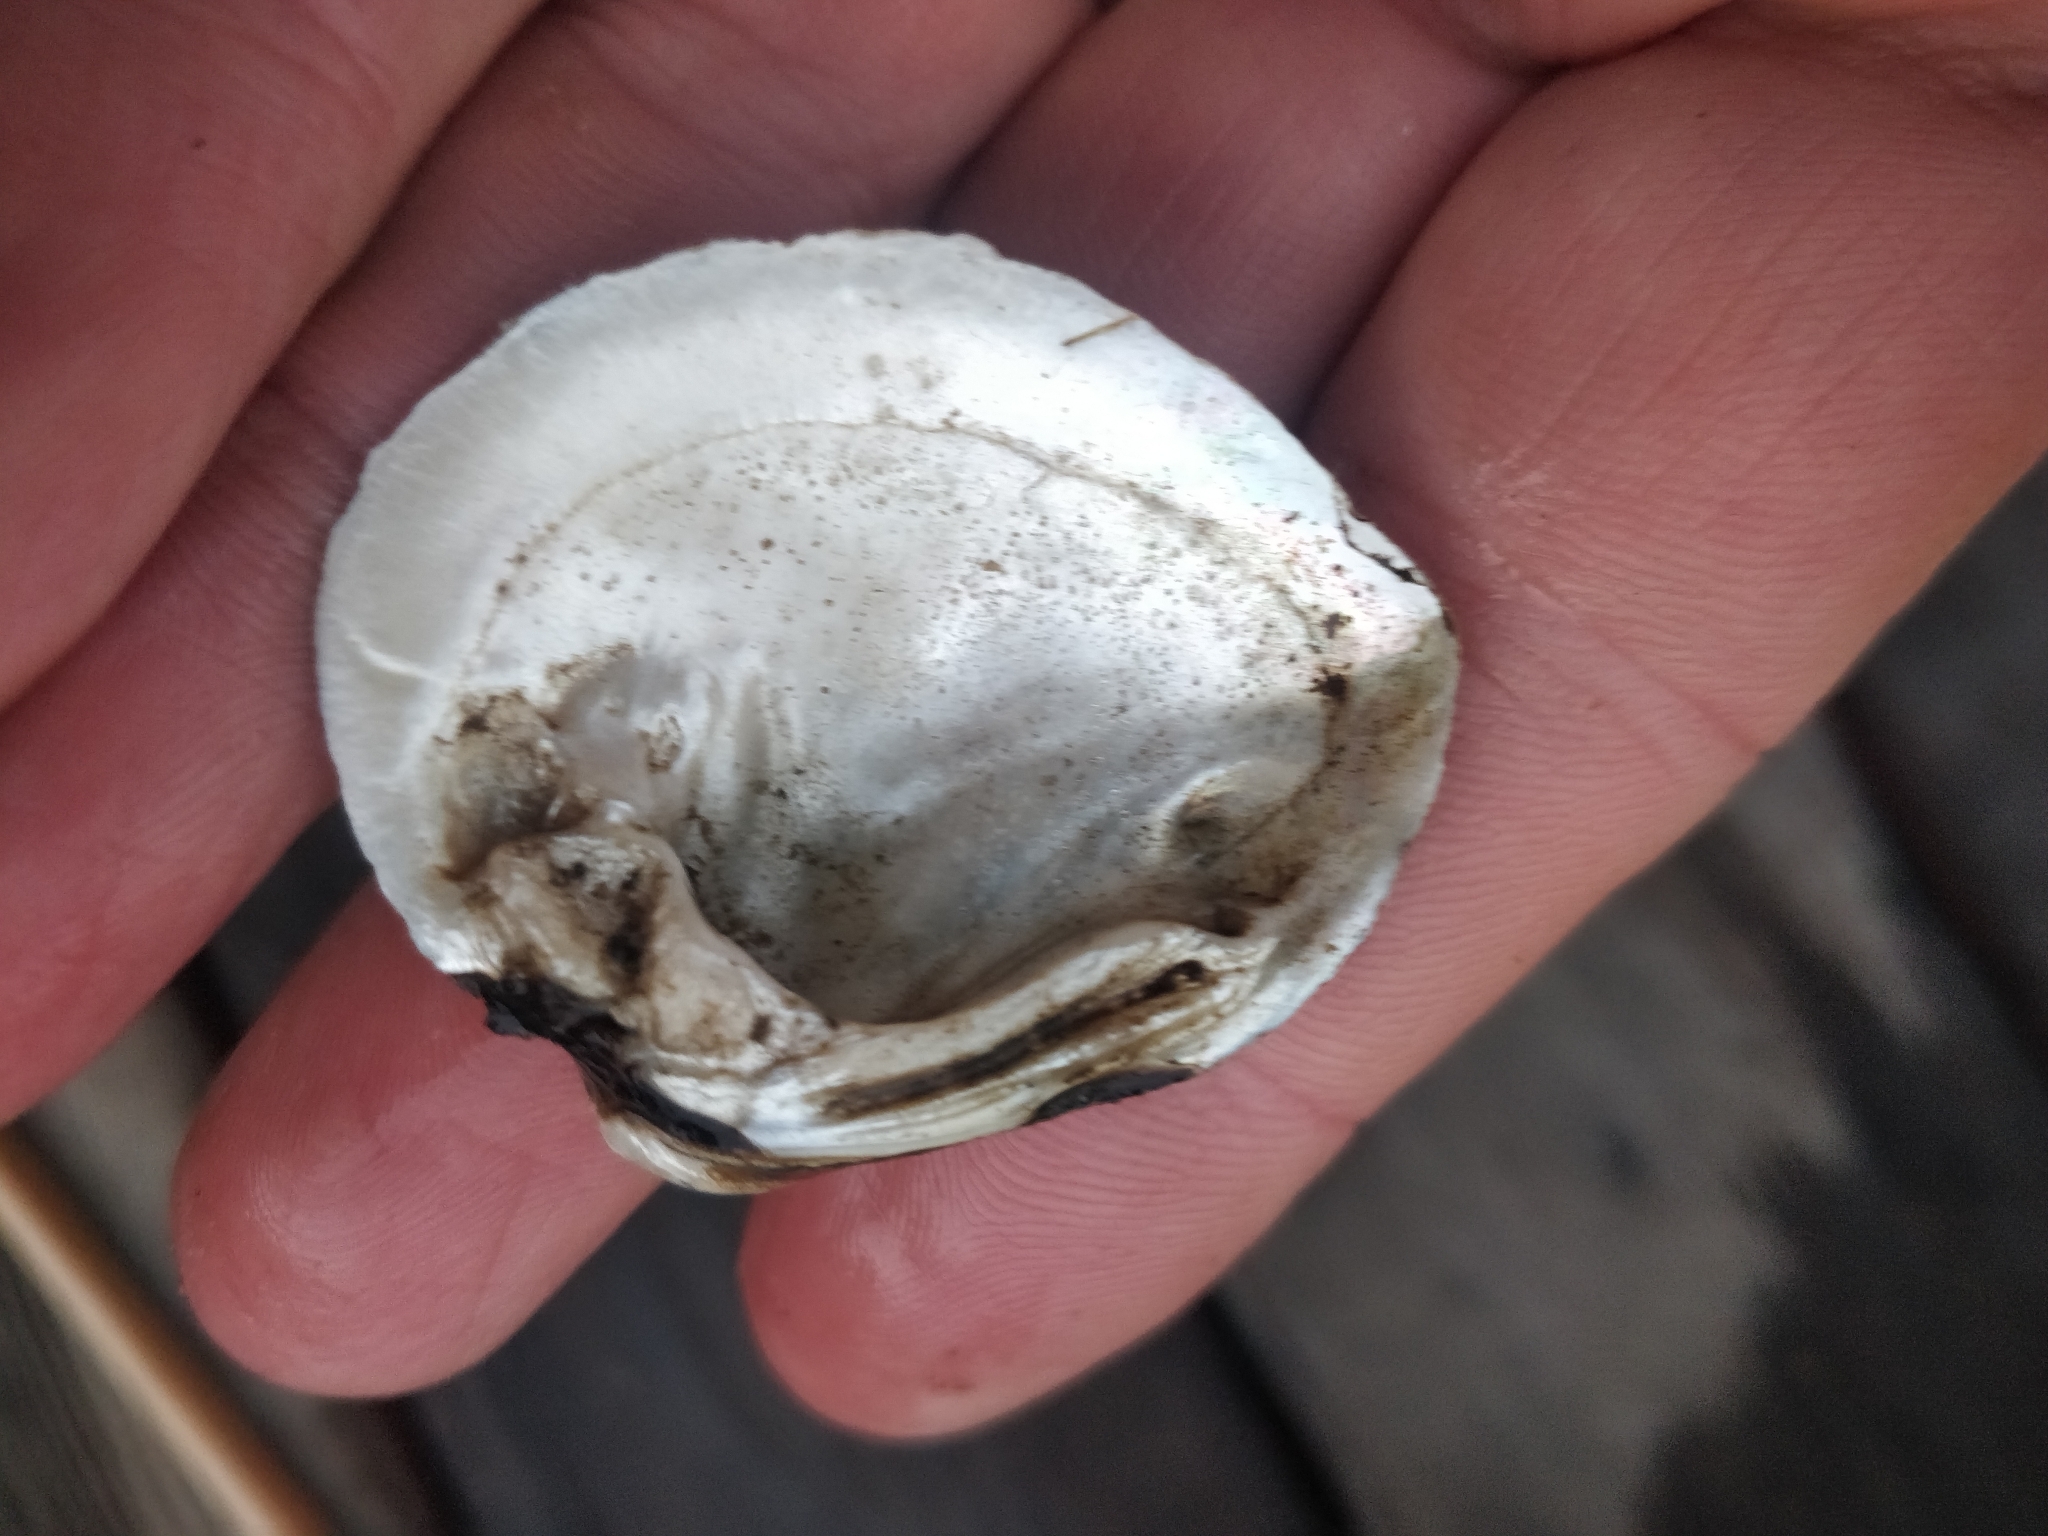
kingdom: Animalia
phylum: Mollusca
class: Bivalvia
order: Unionida
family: Unionidae
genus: Fusconaia
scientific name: Fusconaia flava
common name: Wabash pigtoe
